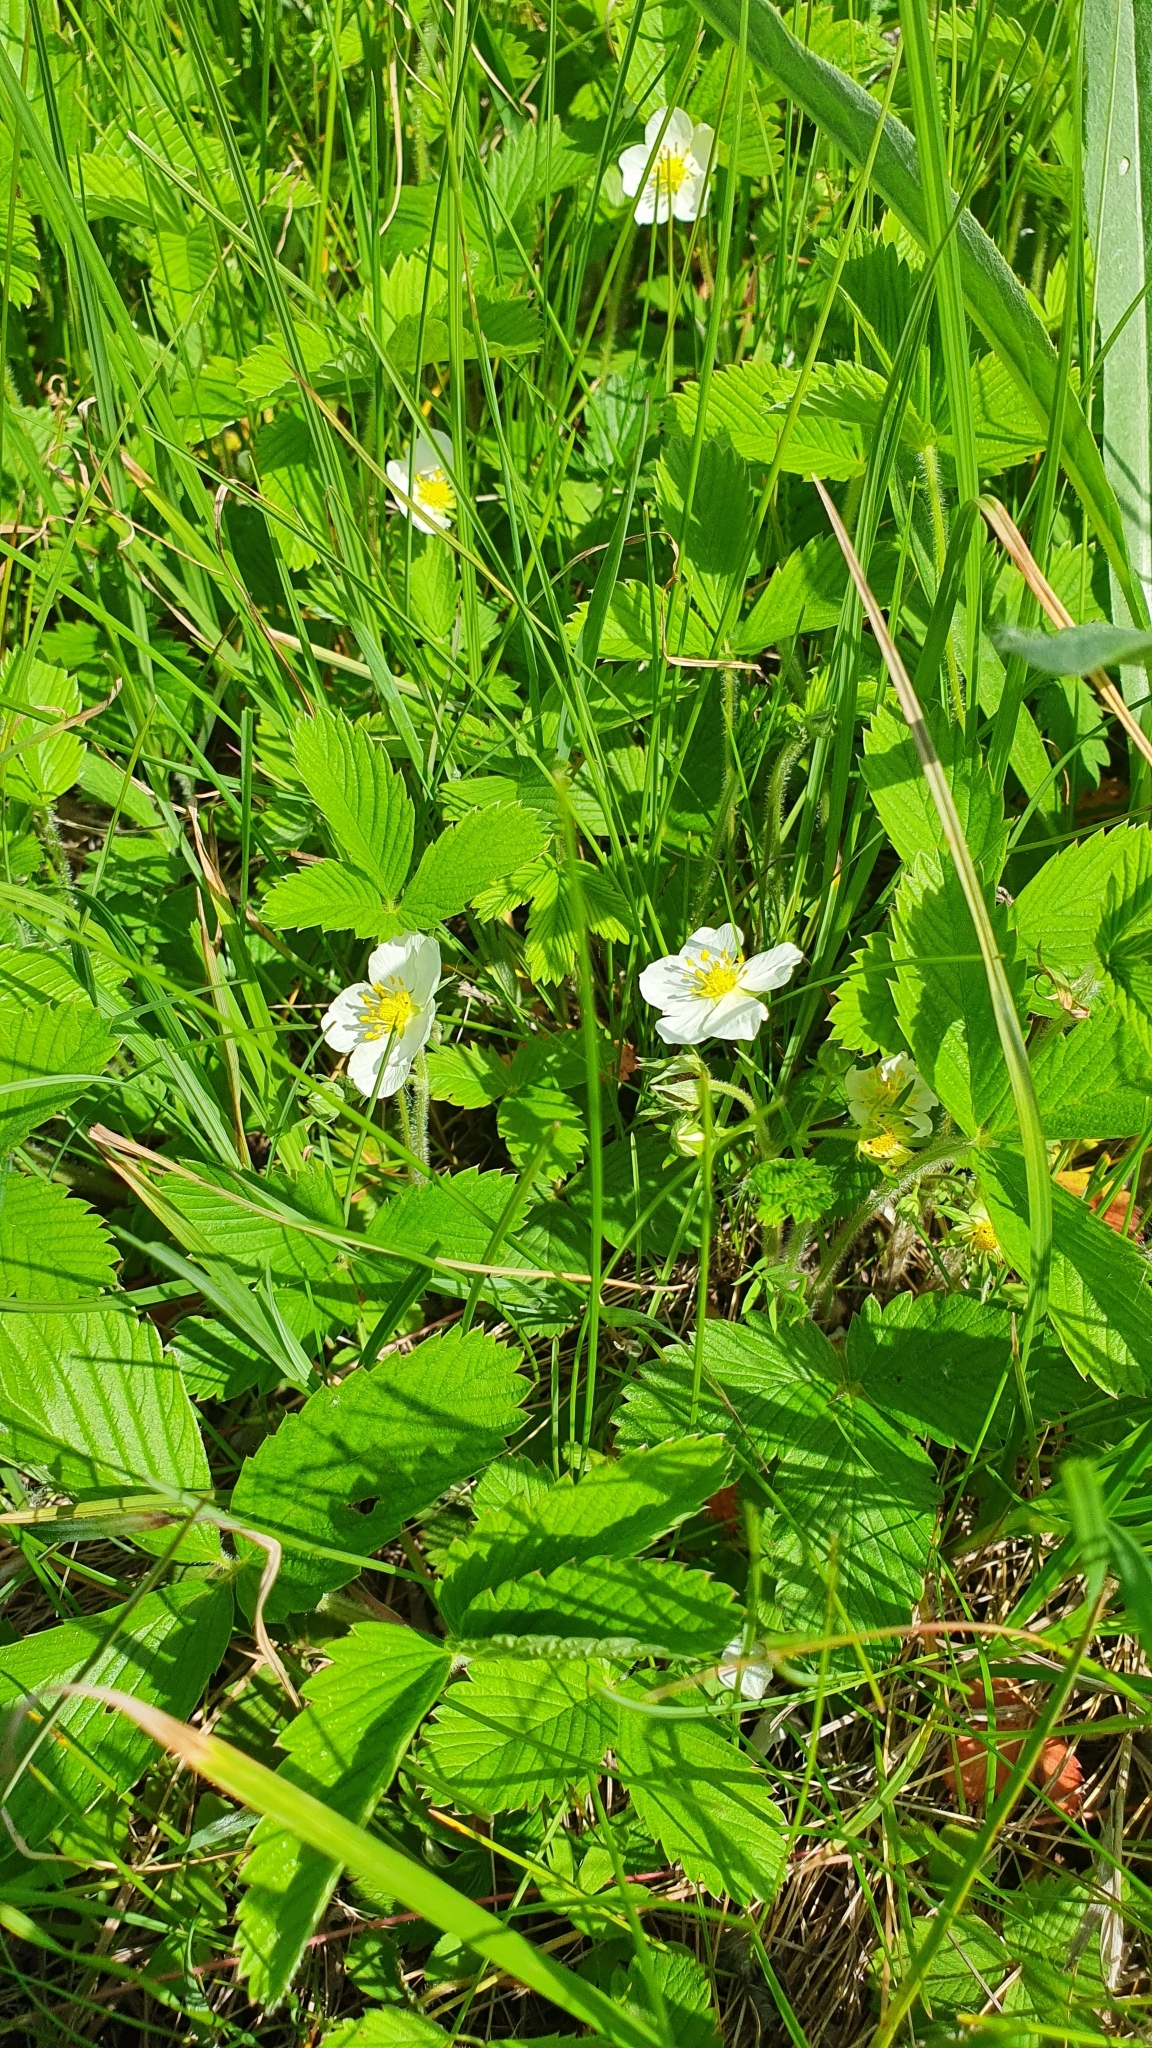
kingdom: Plantae
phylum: Tracheophyta
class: Magnoliopsida
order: Rosales
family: Rosaceae
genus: Fragaria
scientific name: Fragaria viridis
